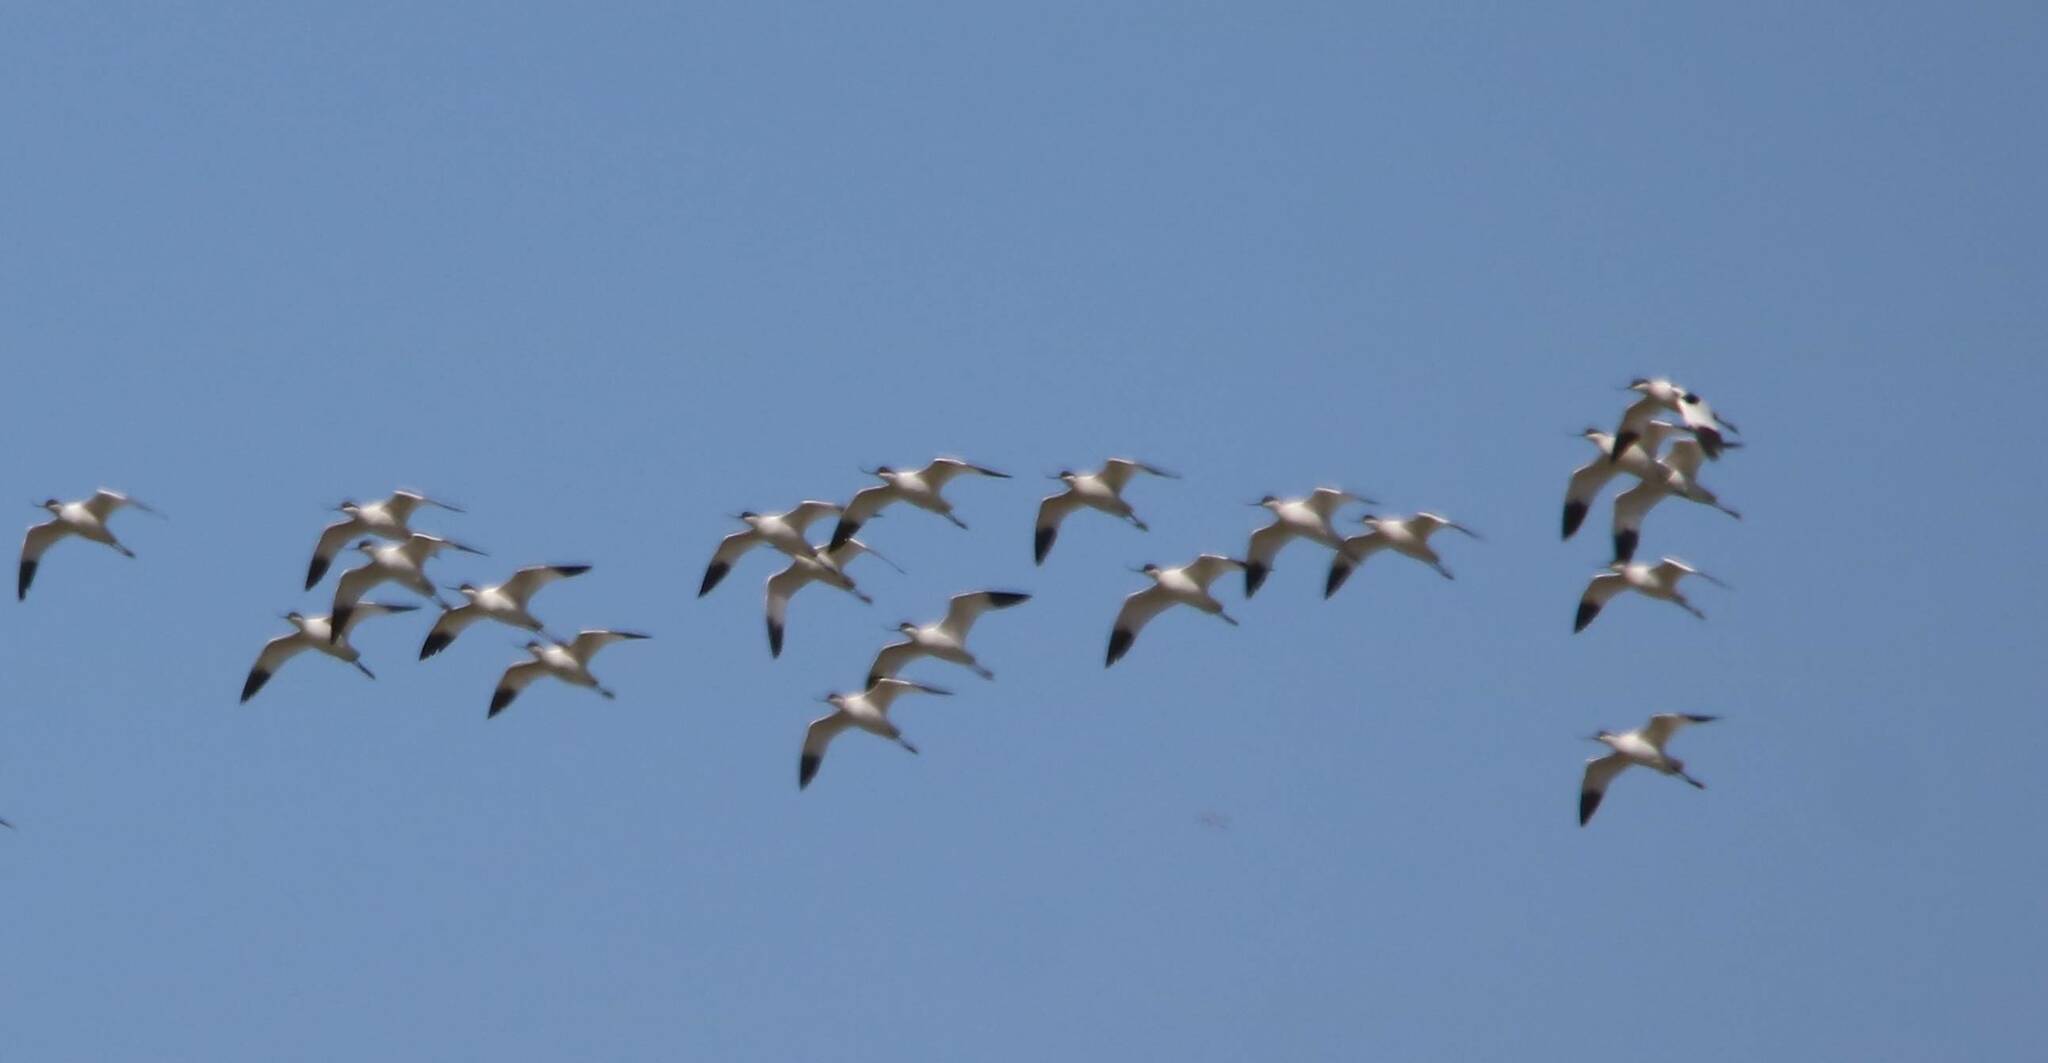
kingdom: Animalia
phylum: Chordata
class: Aves
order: Charadriiformes
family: Recurvirostridae
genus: Recurvirostra
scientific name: Recurvirostra avosetta
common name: Pied avocet
